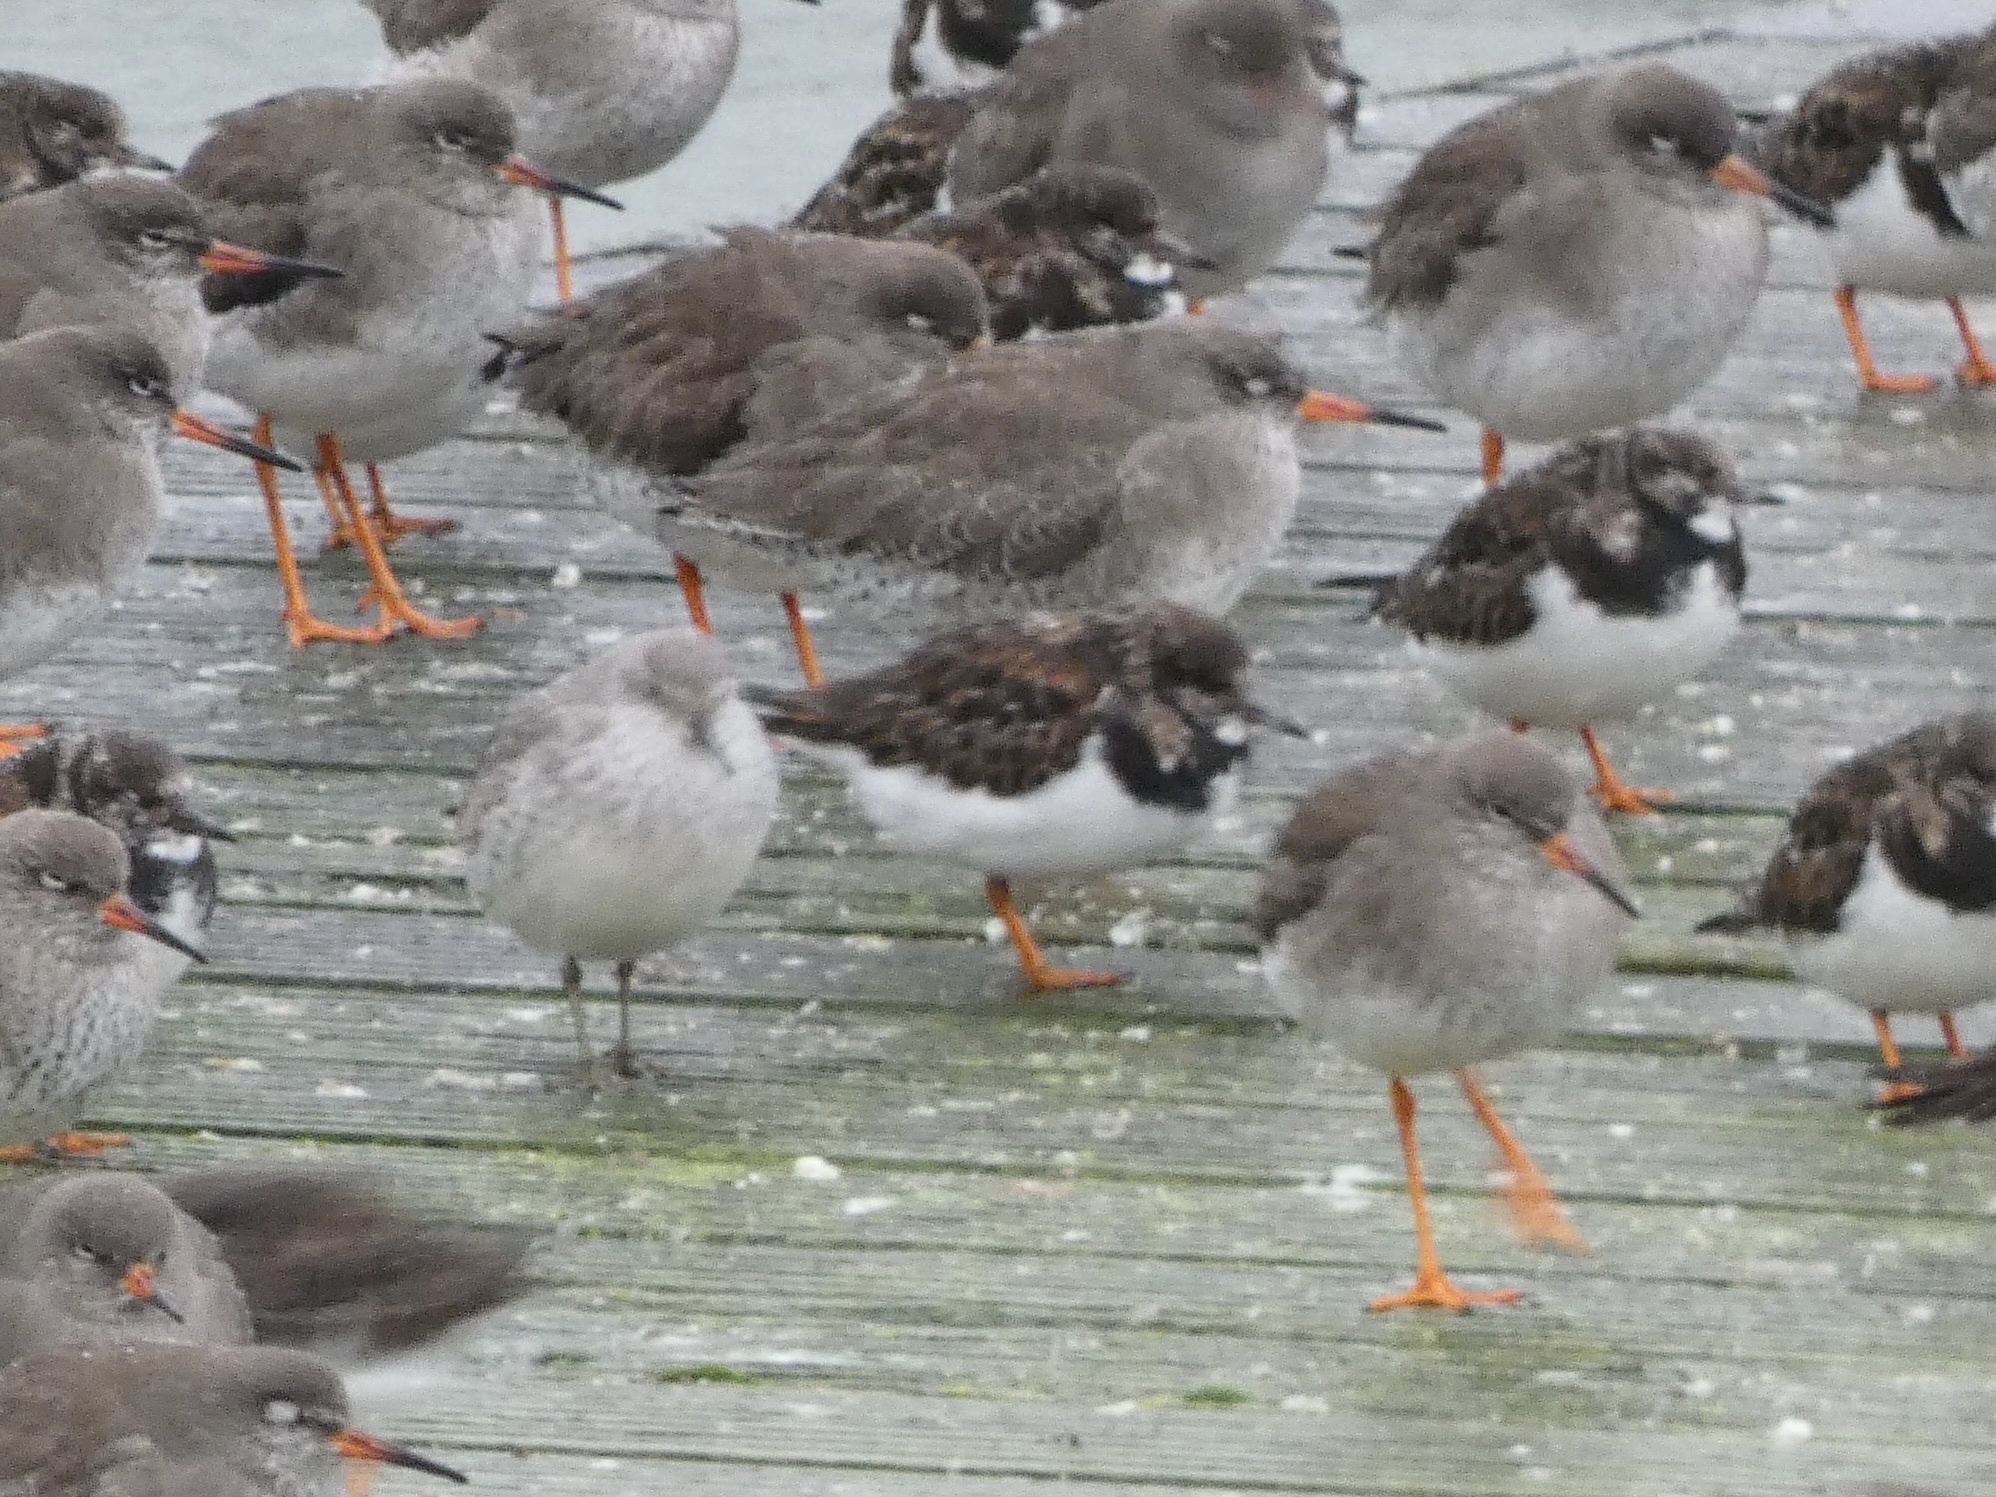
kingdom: Animalia
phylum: Chordata
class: Aves
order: Charadriiformes
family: Scolopacidae
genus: Calidris
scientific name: Calidris canutus
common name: Red knot
